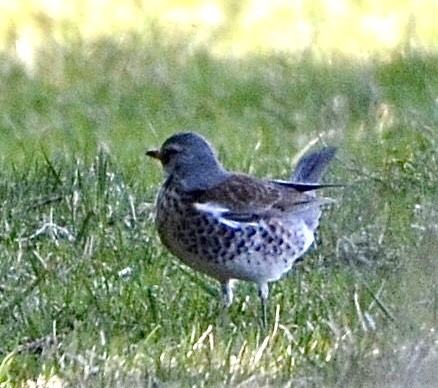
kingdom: Animalia
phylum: Chordata
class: Aves
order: Passeriformes
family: Turdidae
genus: Turdus
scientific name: Turdus pilaris
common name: Fieldfare
